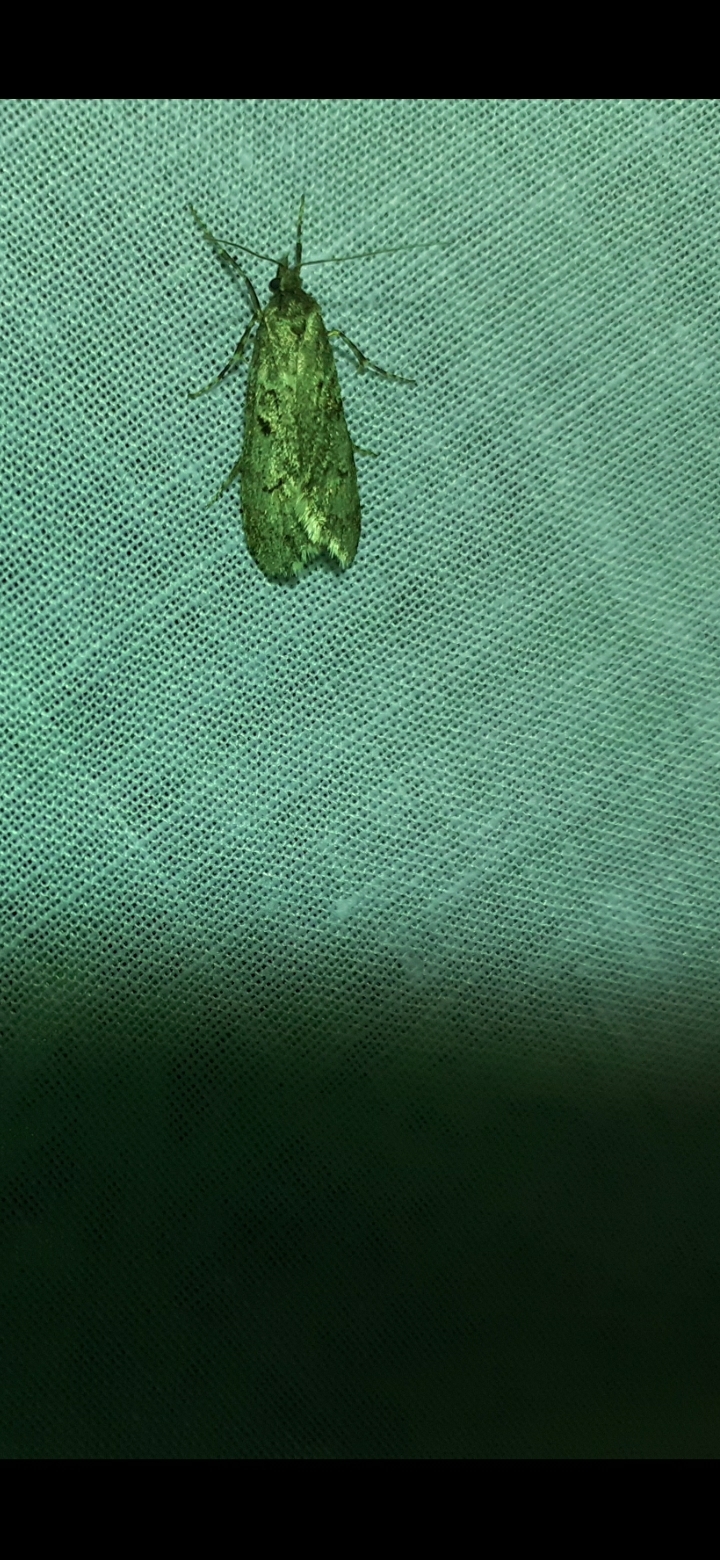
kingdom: Animalia
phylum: Arthropoda
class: Insecta
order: Lepidoptera
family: Lypusidae
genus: Diurnea
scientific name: Diurnea fagella
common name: March tubic
